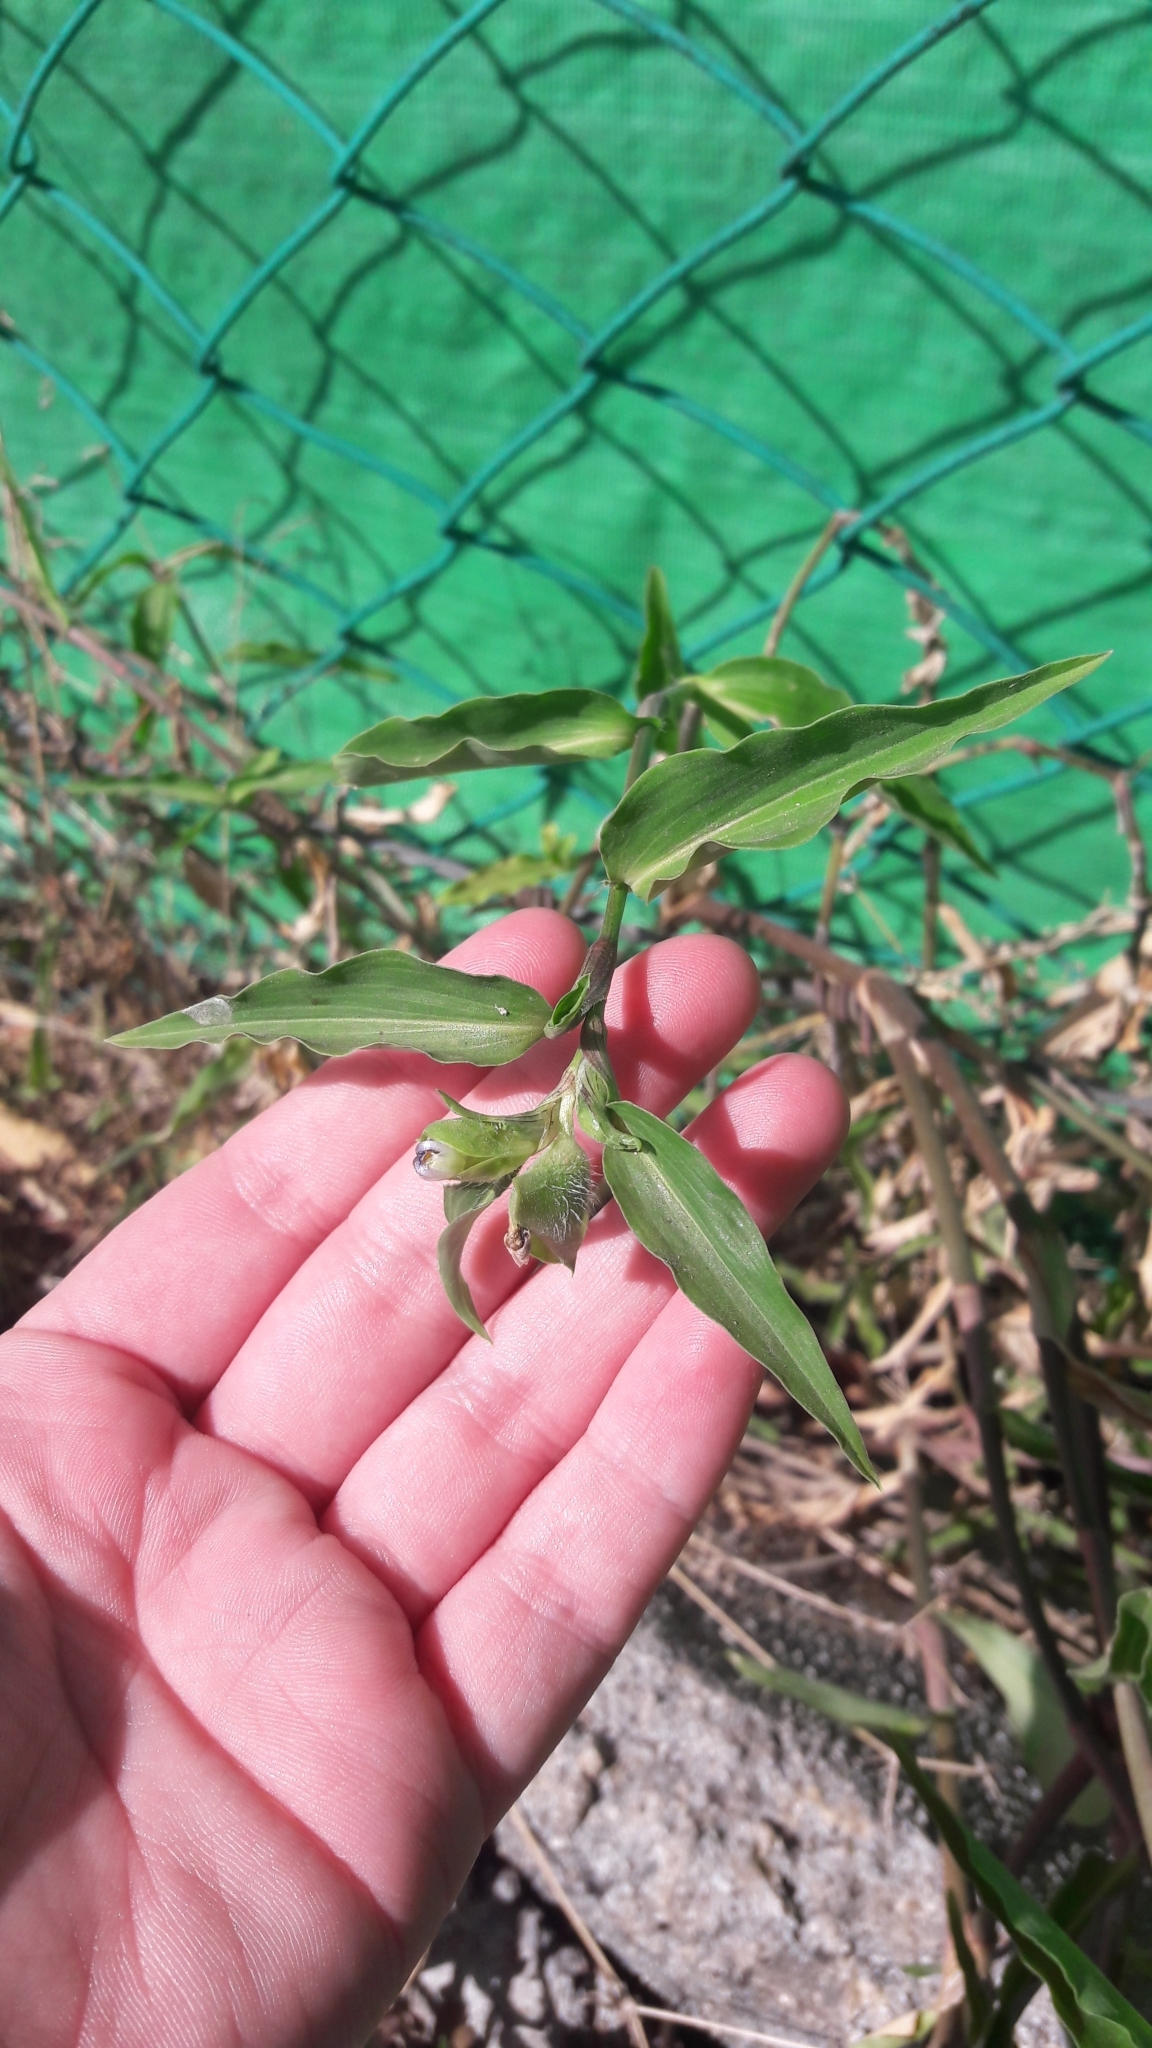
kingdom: Plantae
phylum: Tracheophyta
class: Liliopsida
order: Commelinales
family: Commelinaceae
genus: Commelina
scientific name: Commelina erecta
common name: Blousel blommetjie
